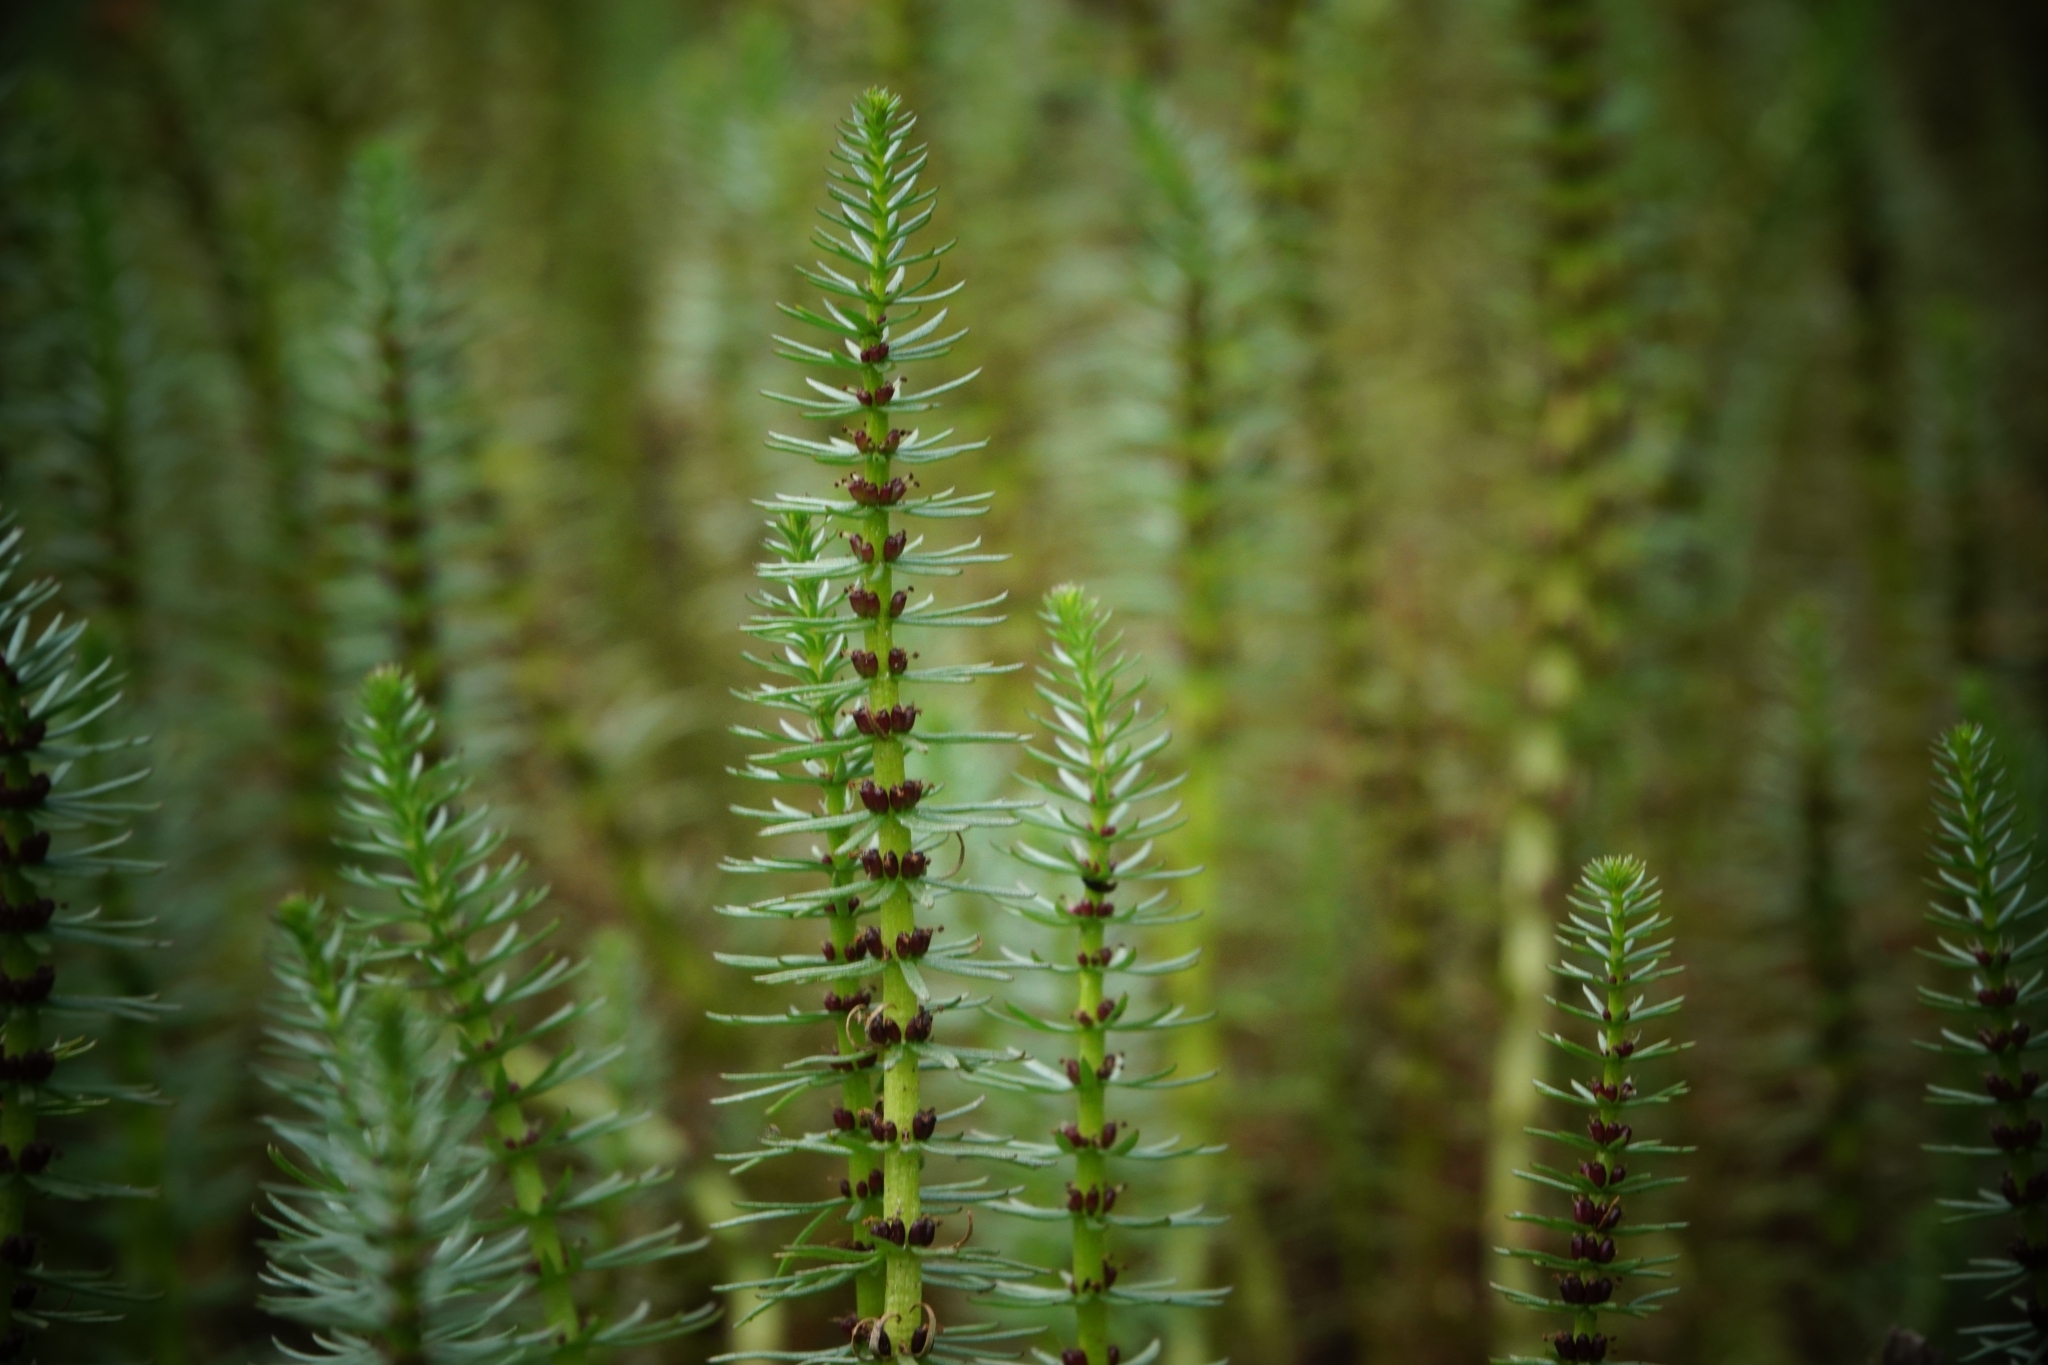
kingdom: Plantae
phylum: Tracheophyta
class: Magnoliopsida
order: Lamiales
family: Plantaginaceae
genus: Hippuris
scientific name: Hippuris vulgaris
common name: Mare's-tail
